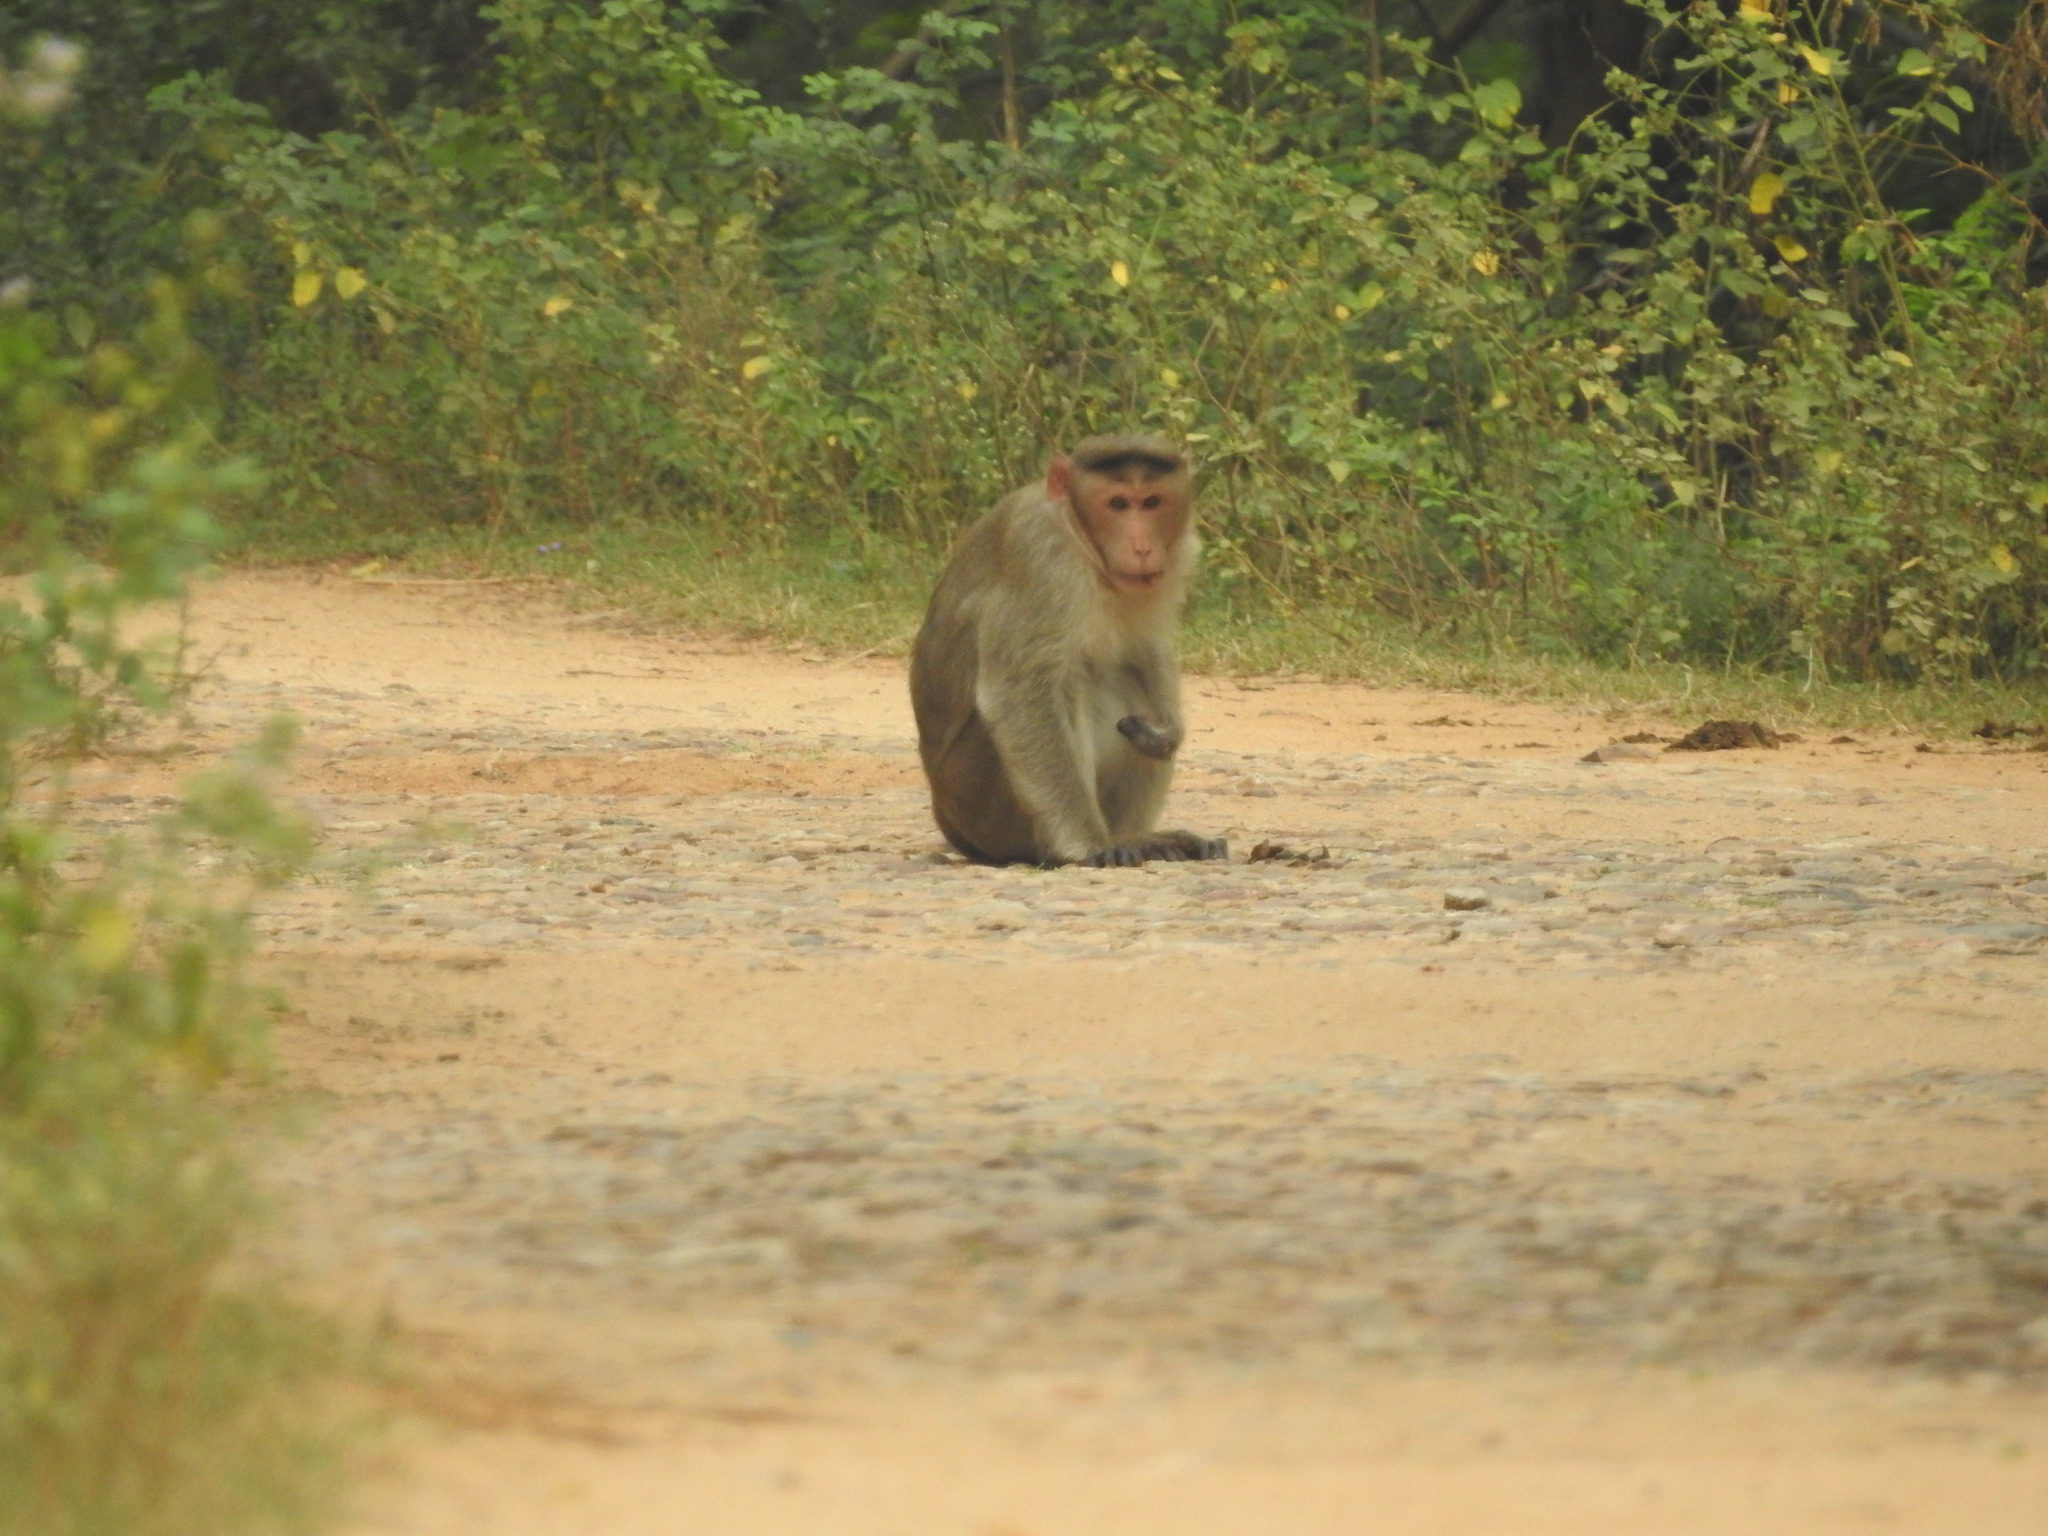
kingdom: Animalia
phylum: Chordata
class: Mammalia
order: Primates
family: Cercopithecidae
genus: Macaca
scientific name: Macaca radiata
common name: Bonnet macaque
